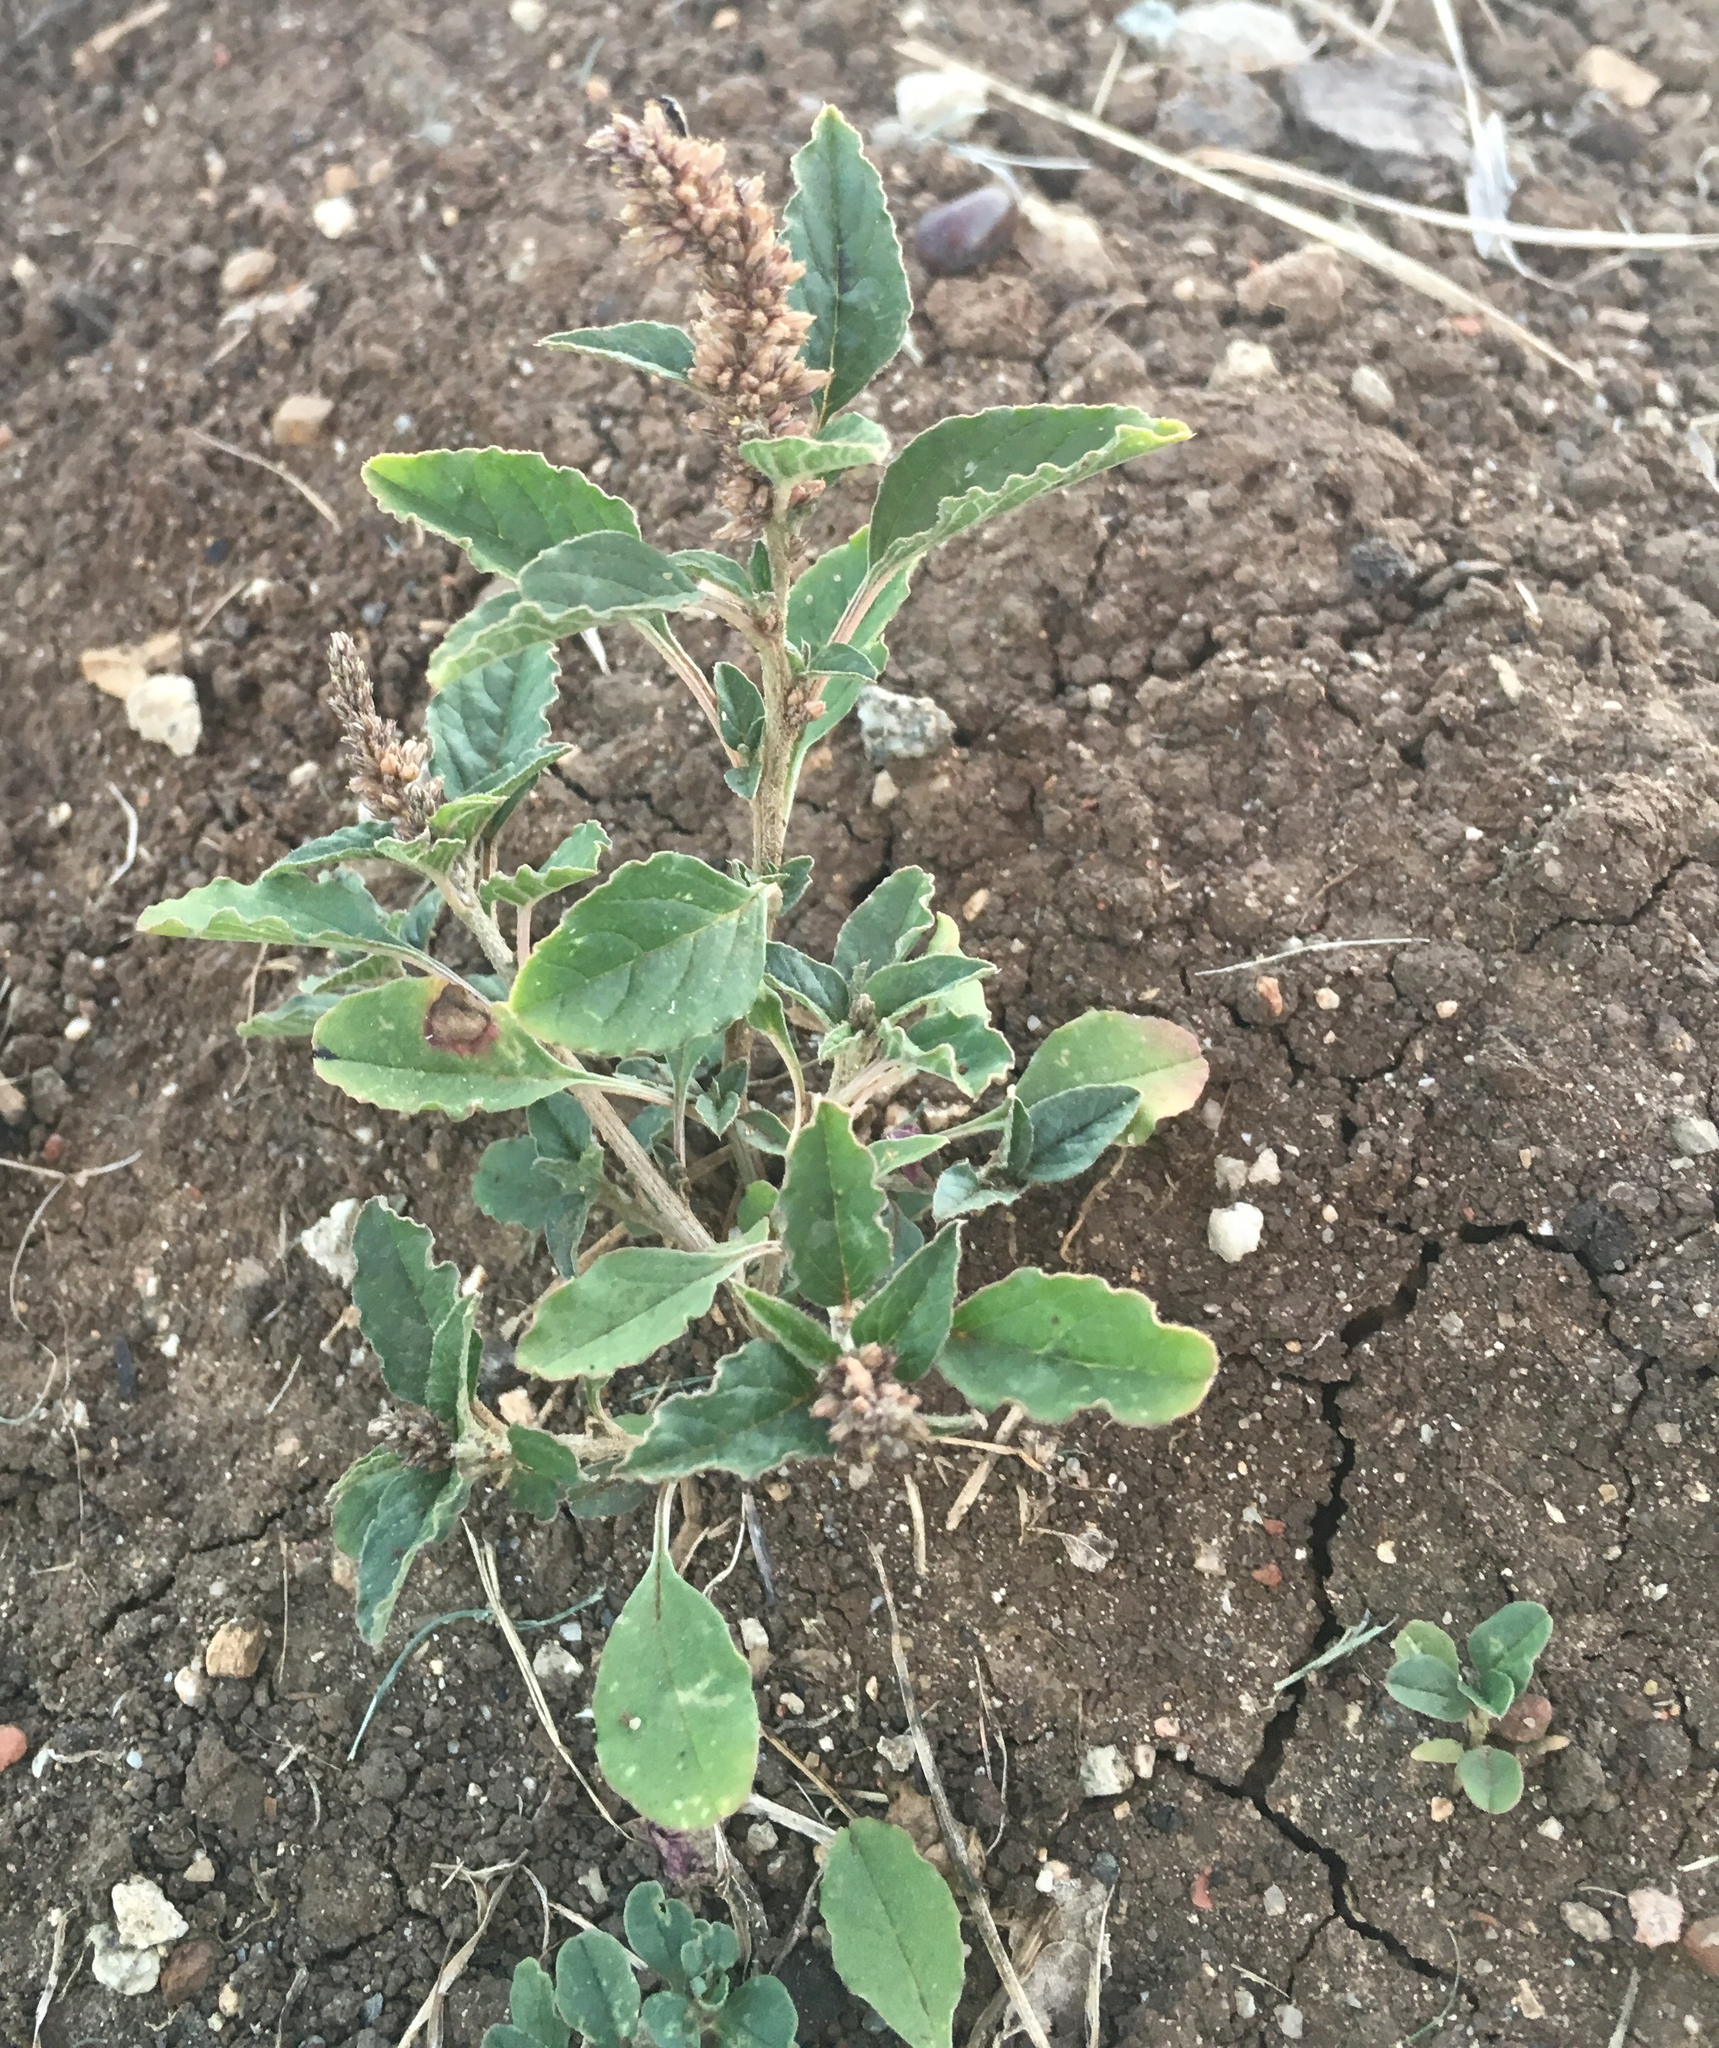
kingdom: Plantae
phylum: Tracheophyta
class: Magnoliopsida
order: Caryophyllales
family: Amaranthaceae
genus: Amaranthus
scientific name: Amaranthus deflexus
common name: Perennial pigweed
